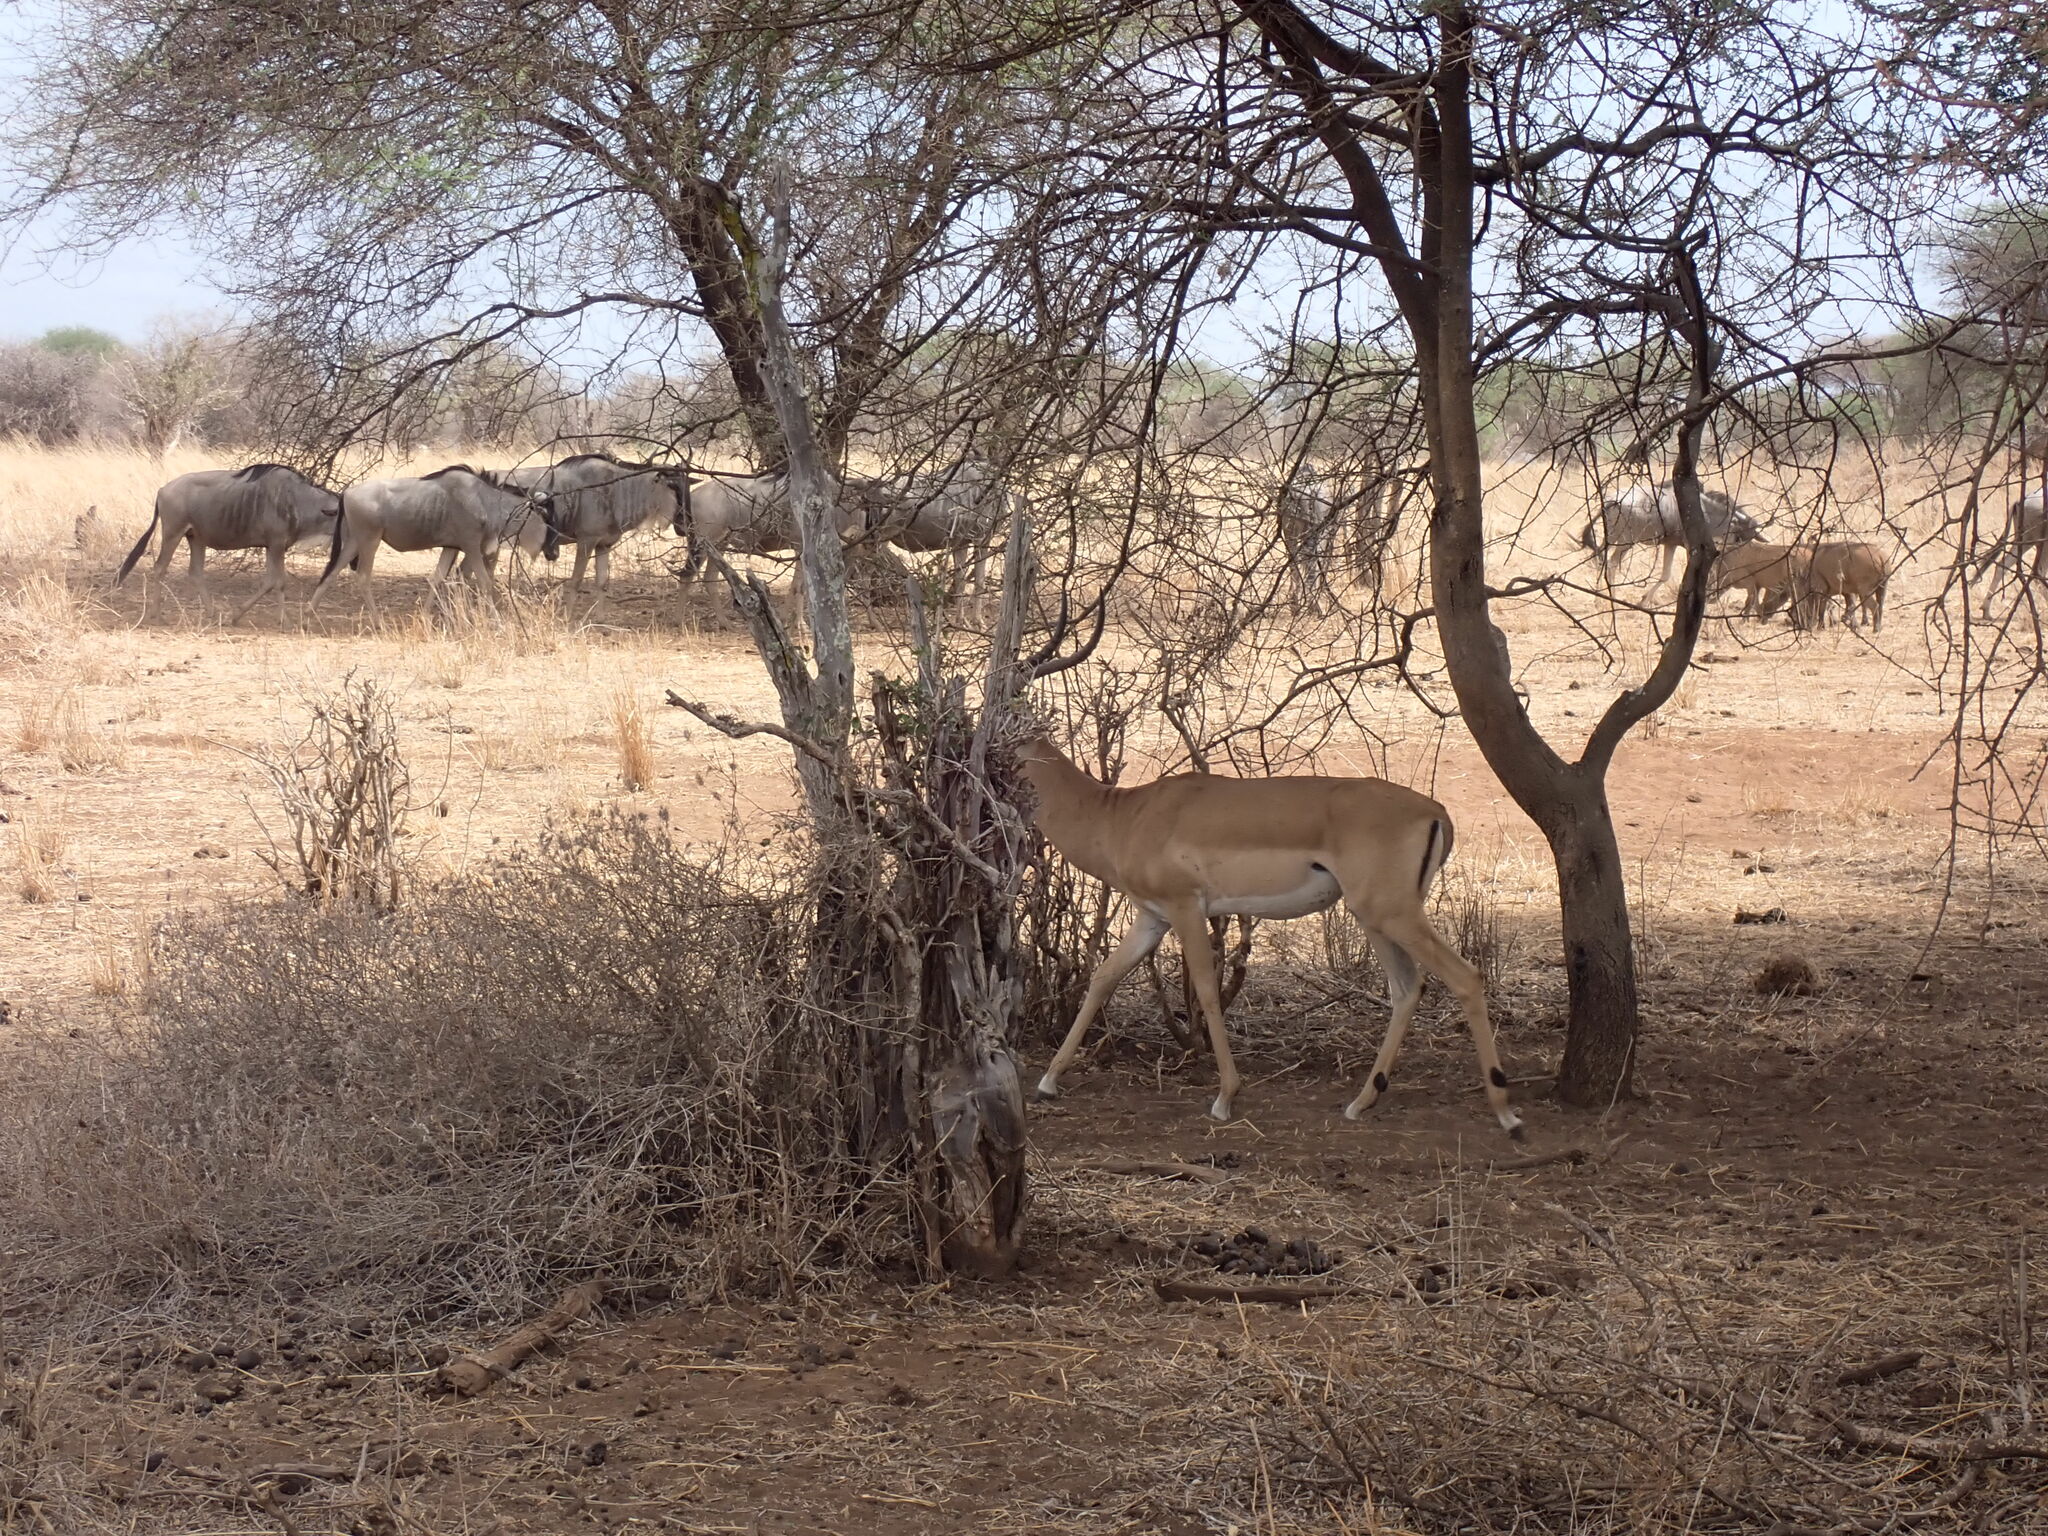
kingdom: Animalia
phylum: Chordata
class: Mammalia
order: Artiodactyla
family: Bovidae
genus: Connochaetes
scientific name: Connochaetes taurinus
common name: Blue wildebeest
